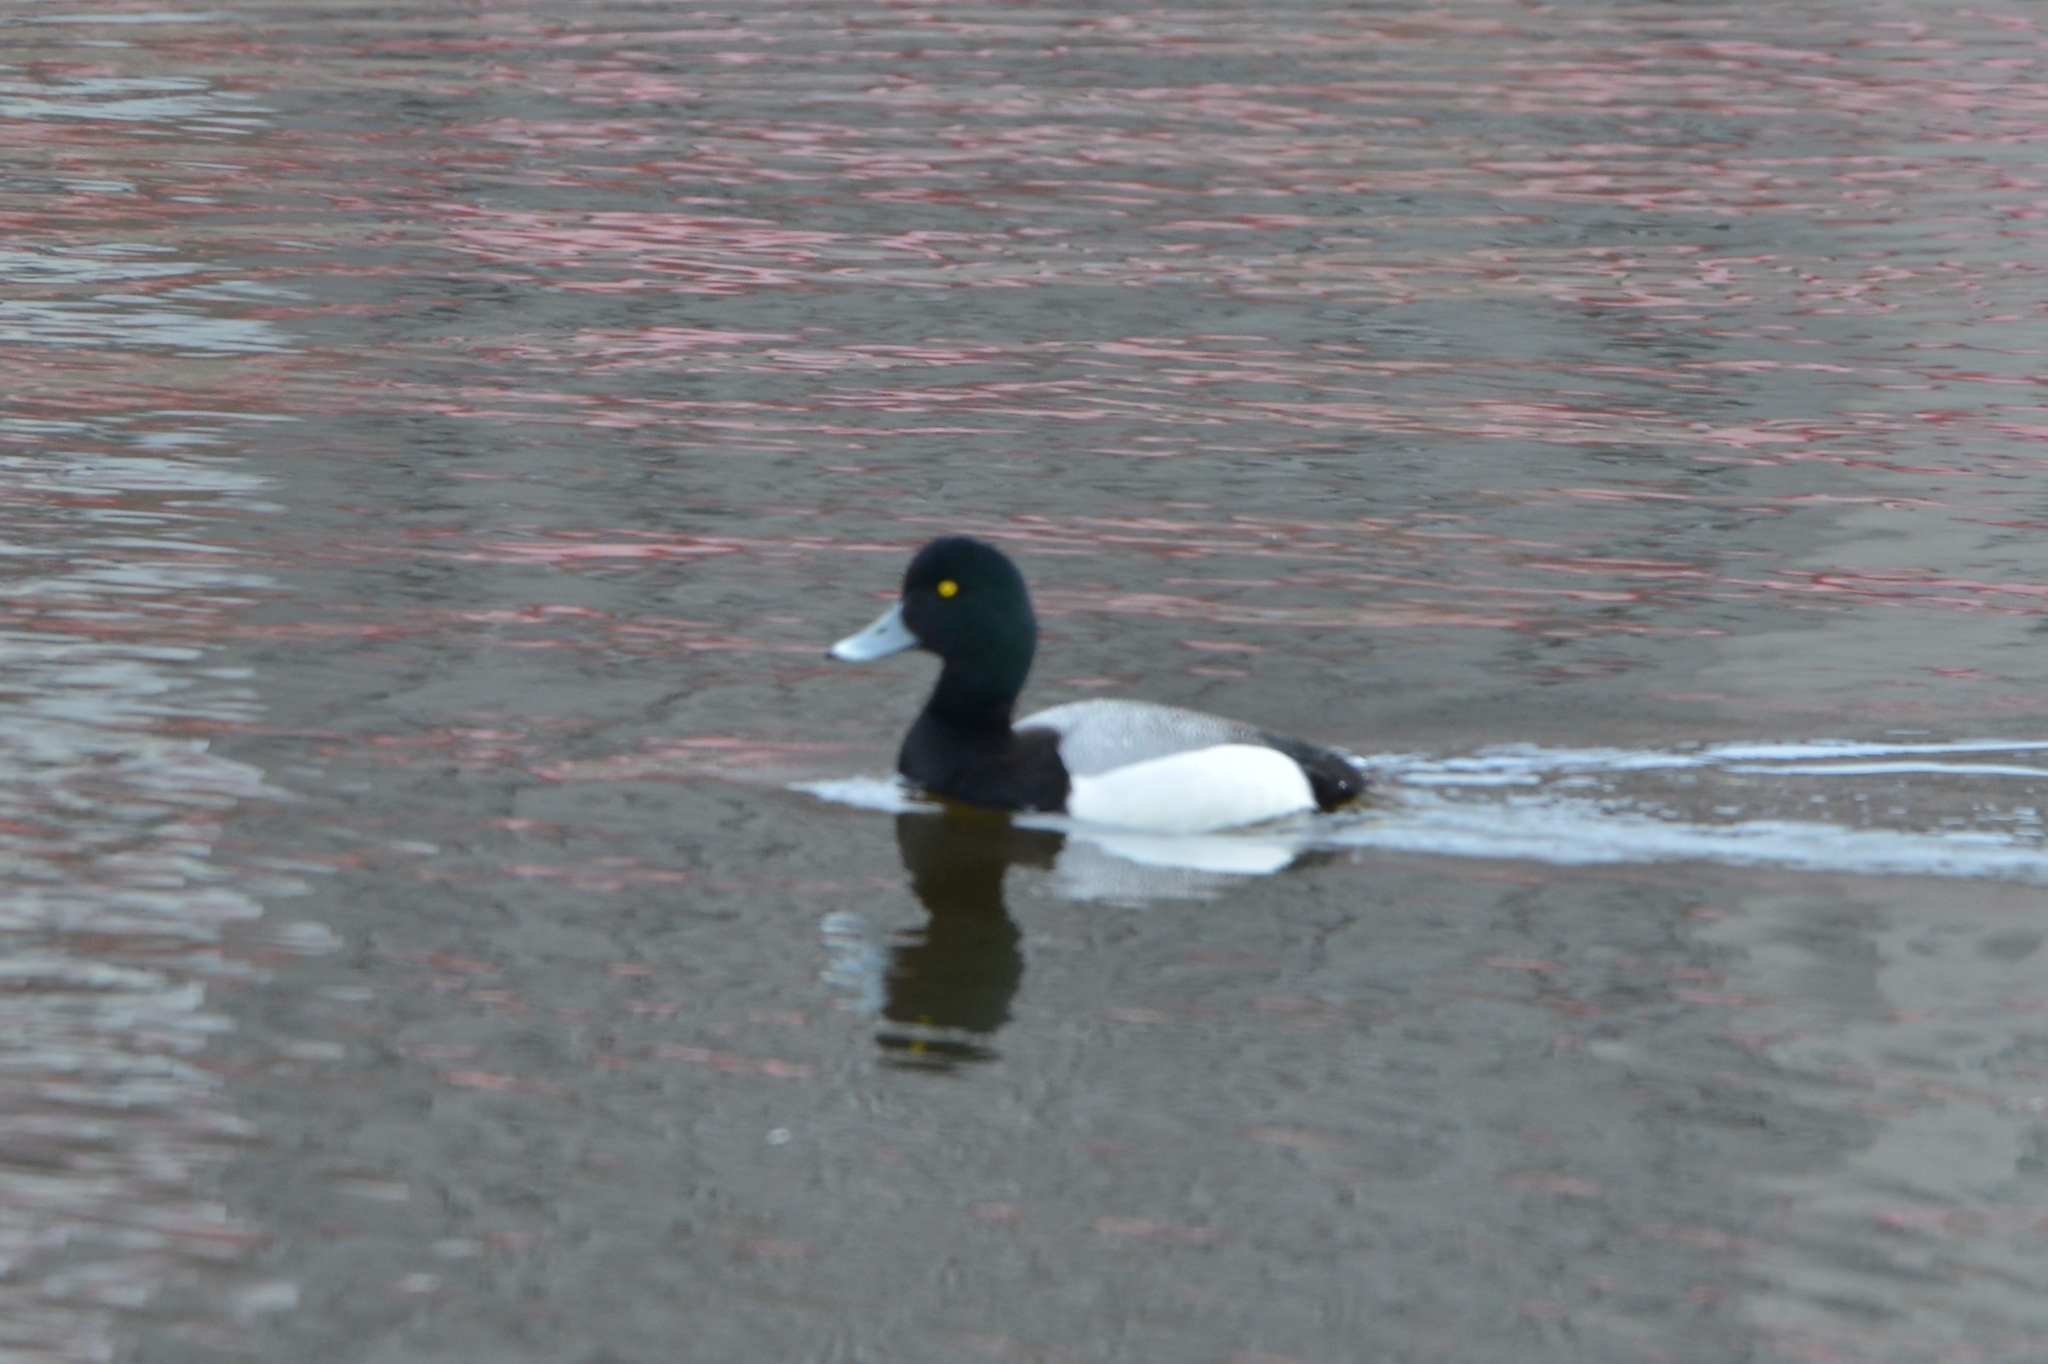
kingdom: Animalia
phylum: Chordata
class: Aves
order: Anseriformes
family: Anatidae
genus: Aythya
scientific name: Aythya marila
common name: Greater scaup
